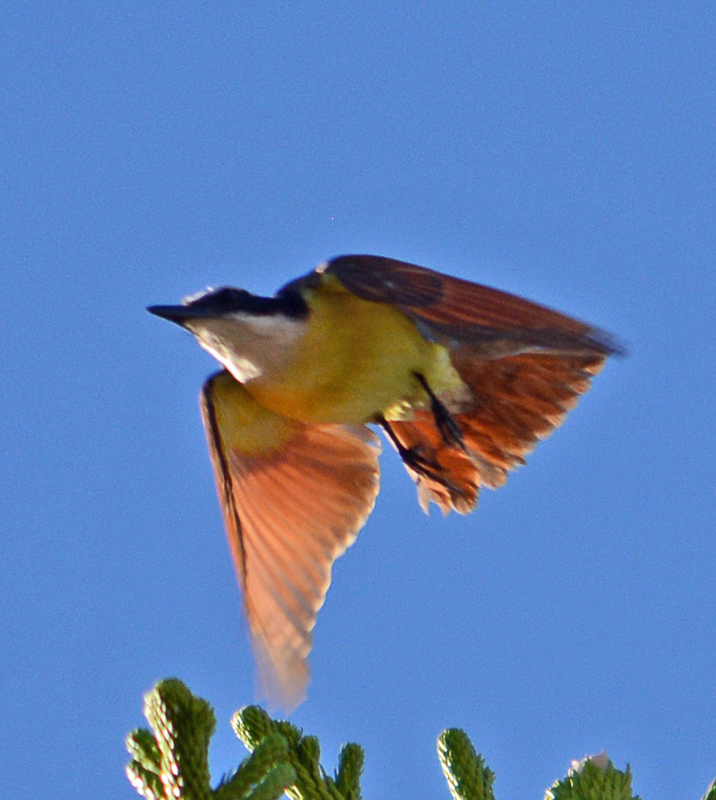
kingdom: Animalia
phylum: Chordata
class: Aves
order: Passeriformes
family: Tyrannidae
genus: Pitangus
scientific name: Pitangus sulphuratus
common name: Great kiskadee
